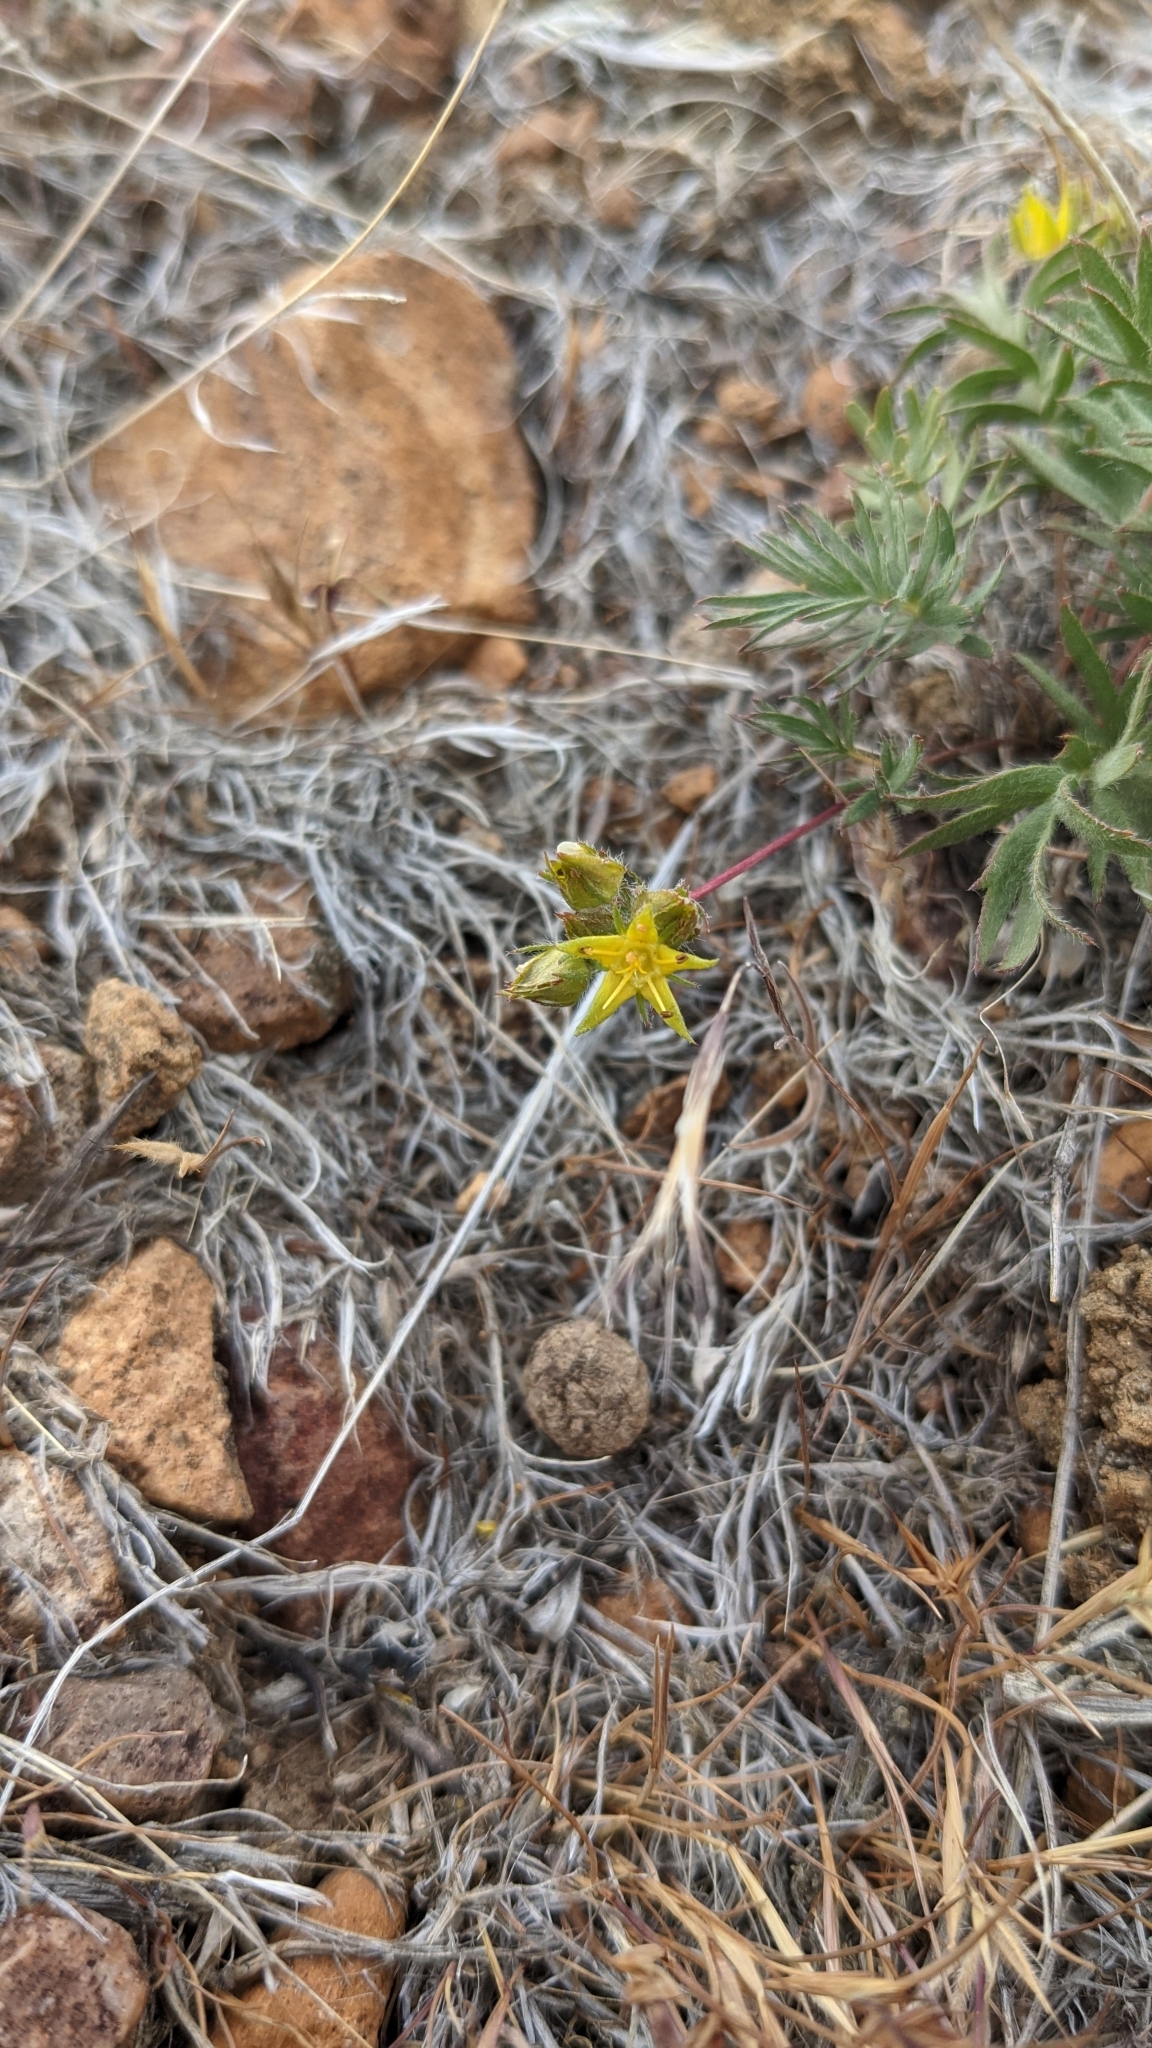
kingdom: Plantae
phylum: Tracheophyta
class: Magnoliopsida
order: Rosales
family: Rosaceae
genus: Potentilla
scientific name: Potentilla webberi
